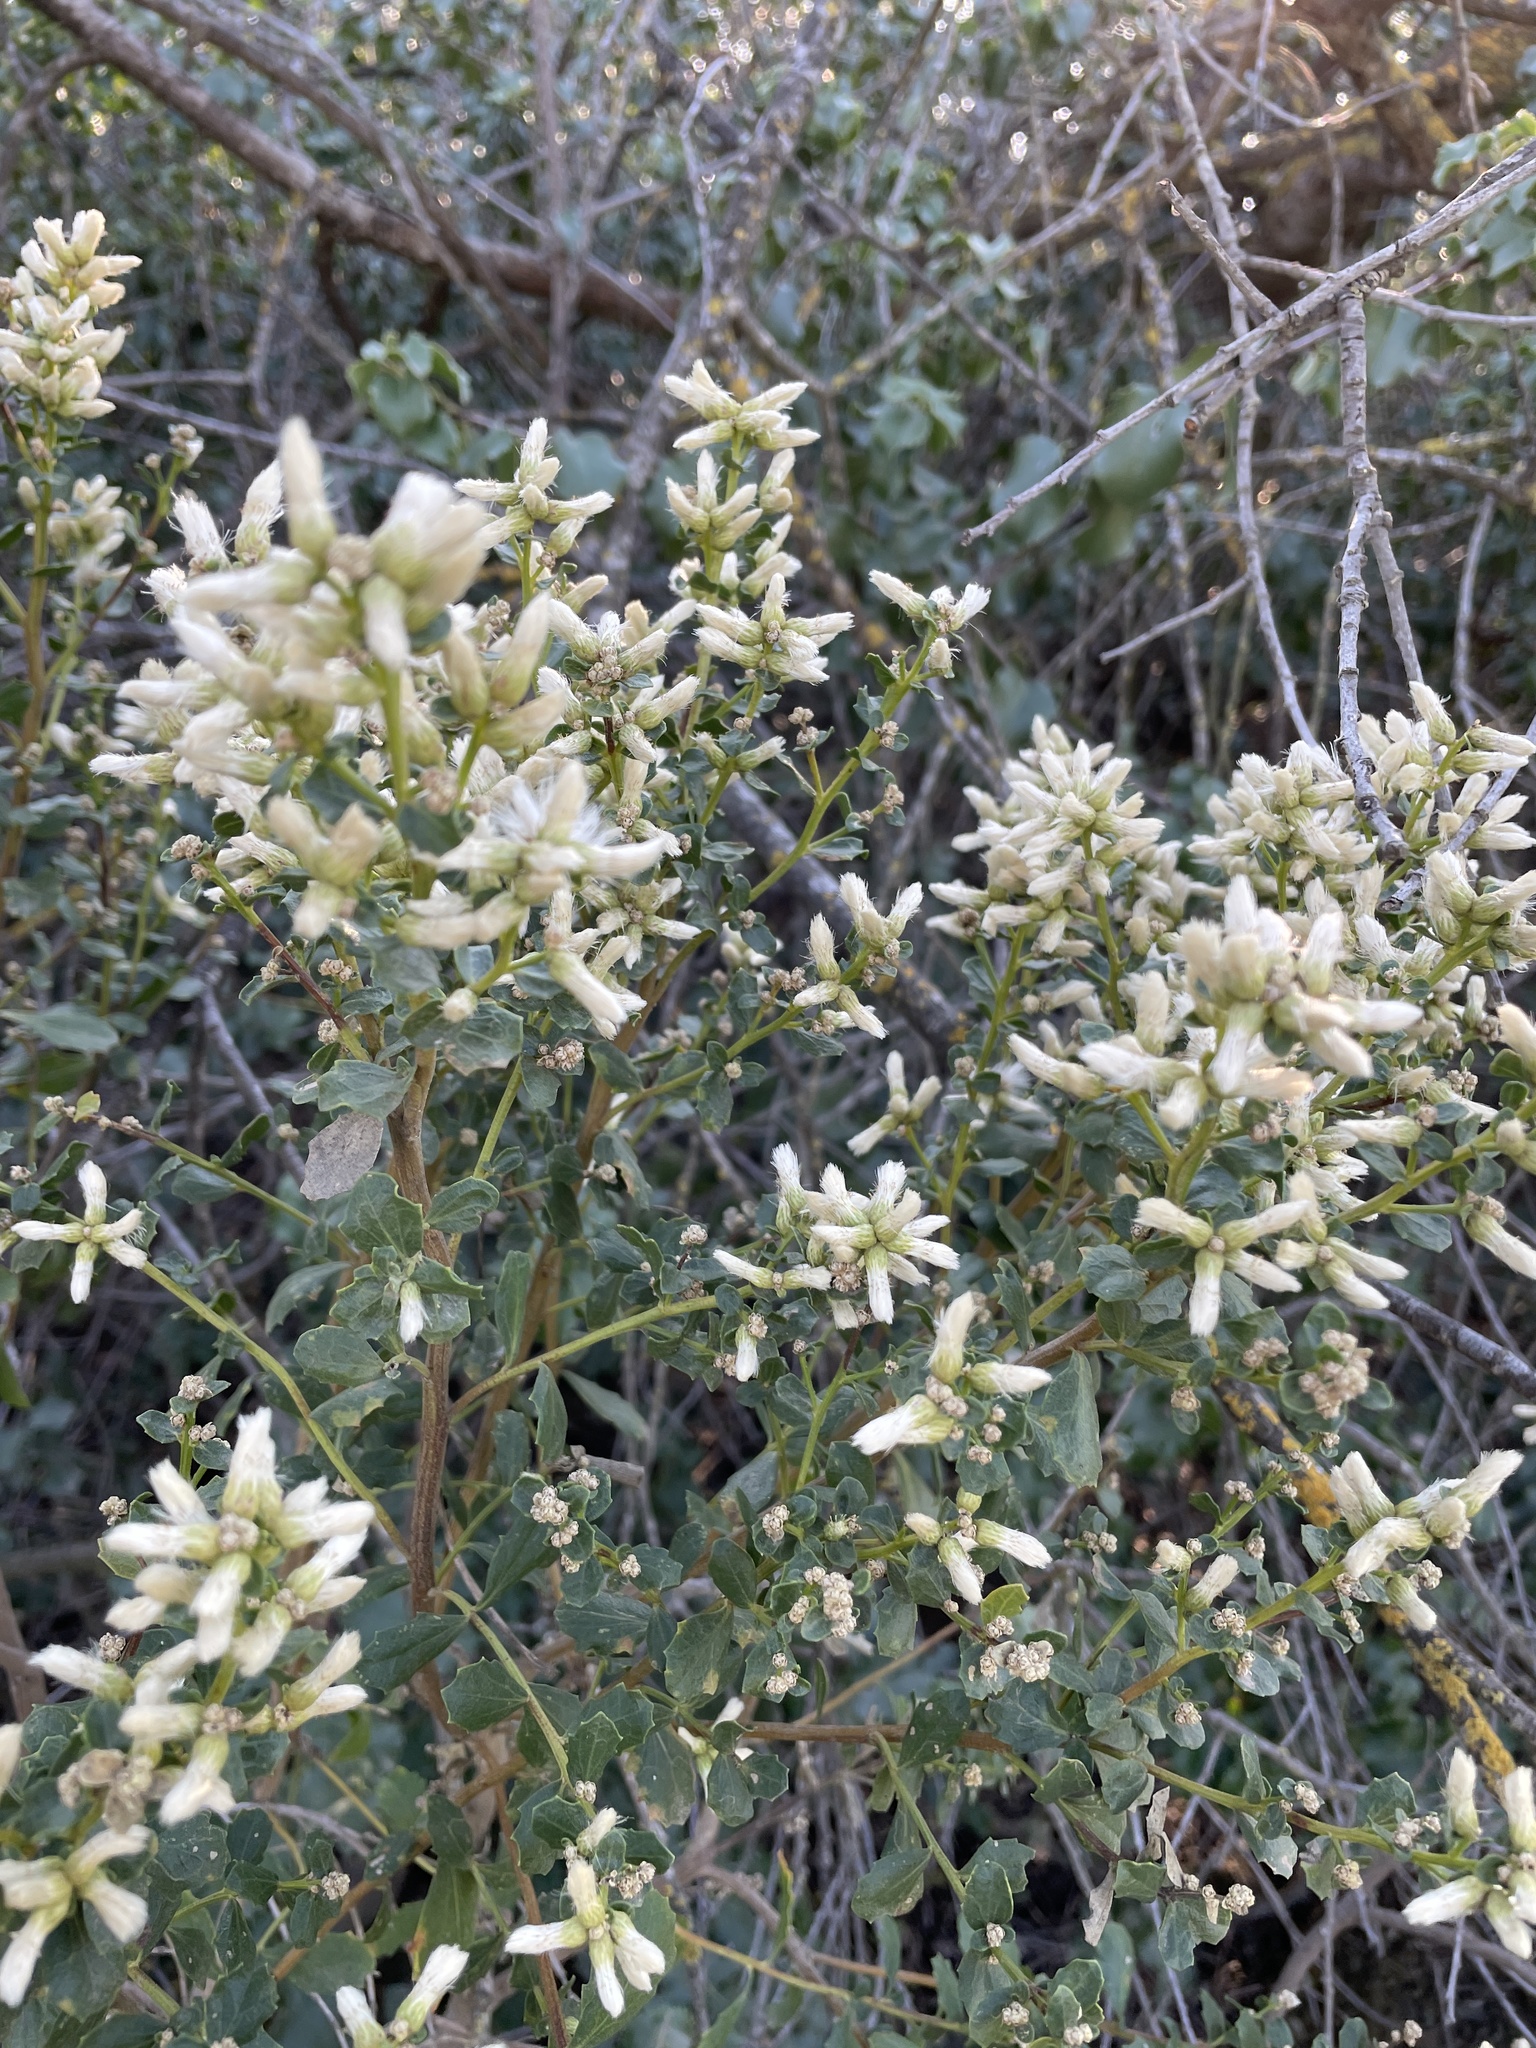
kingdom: Plantae
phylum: Tracheophyta
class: Magnoliopsida
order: Asterales
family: Asteraceae
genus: Baccharis
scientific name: Baccharis pilularis
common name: Coyotebrush
